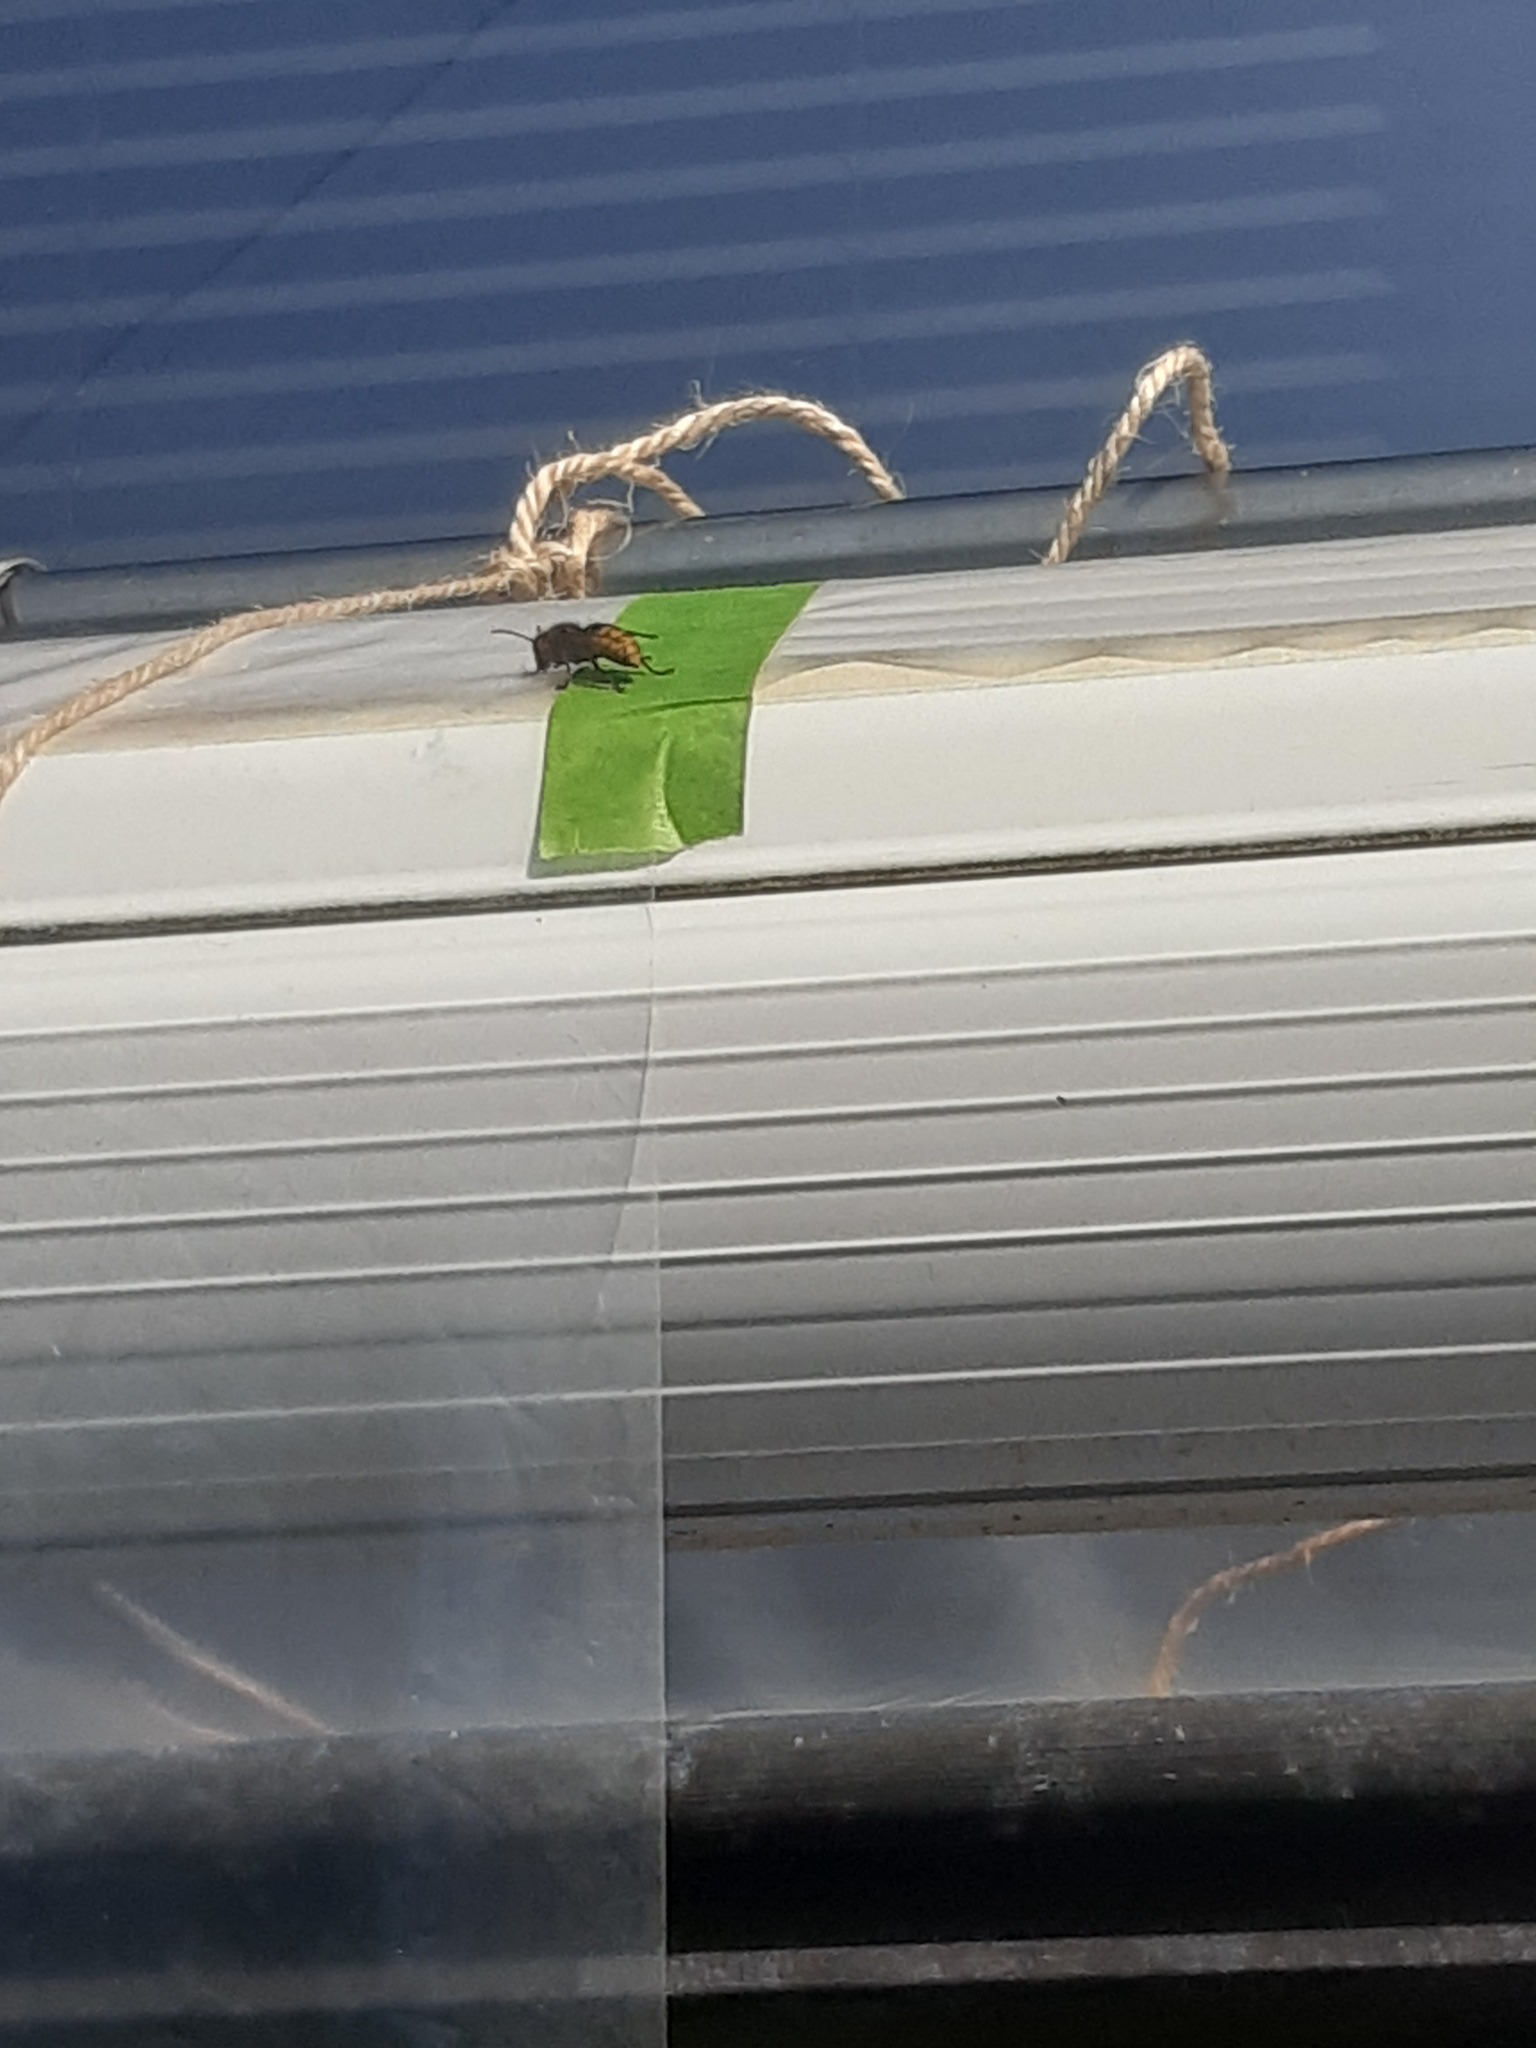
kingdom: Animalia
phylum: Arthropoda
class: Insecta
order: Hymenoptera
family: Vespidae
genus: Vespa
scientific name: Vespa crabro
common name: Hornet
